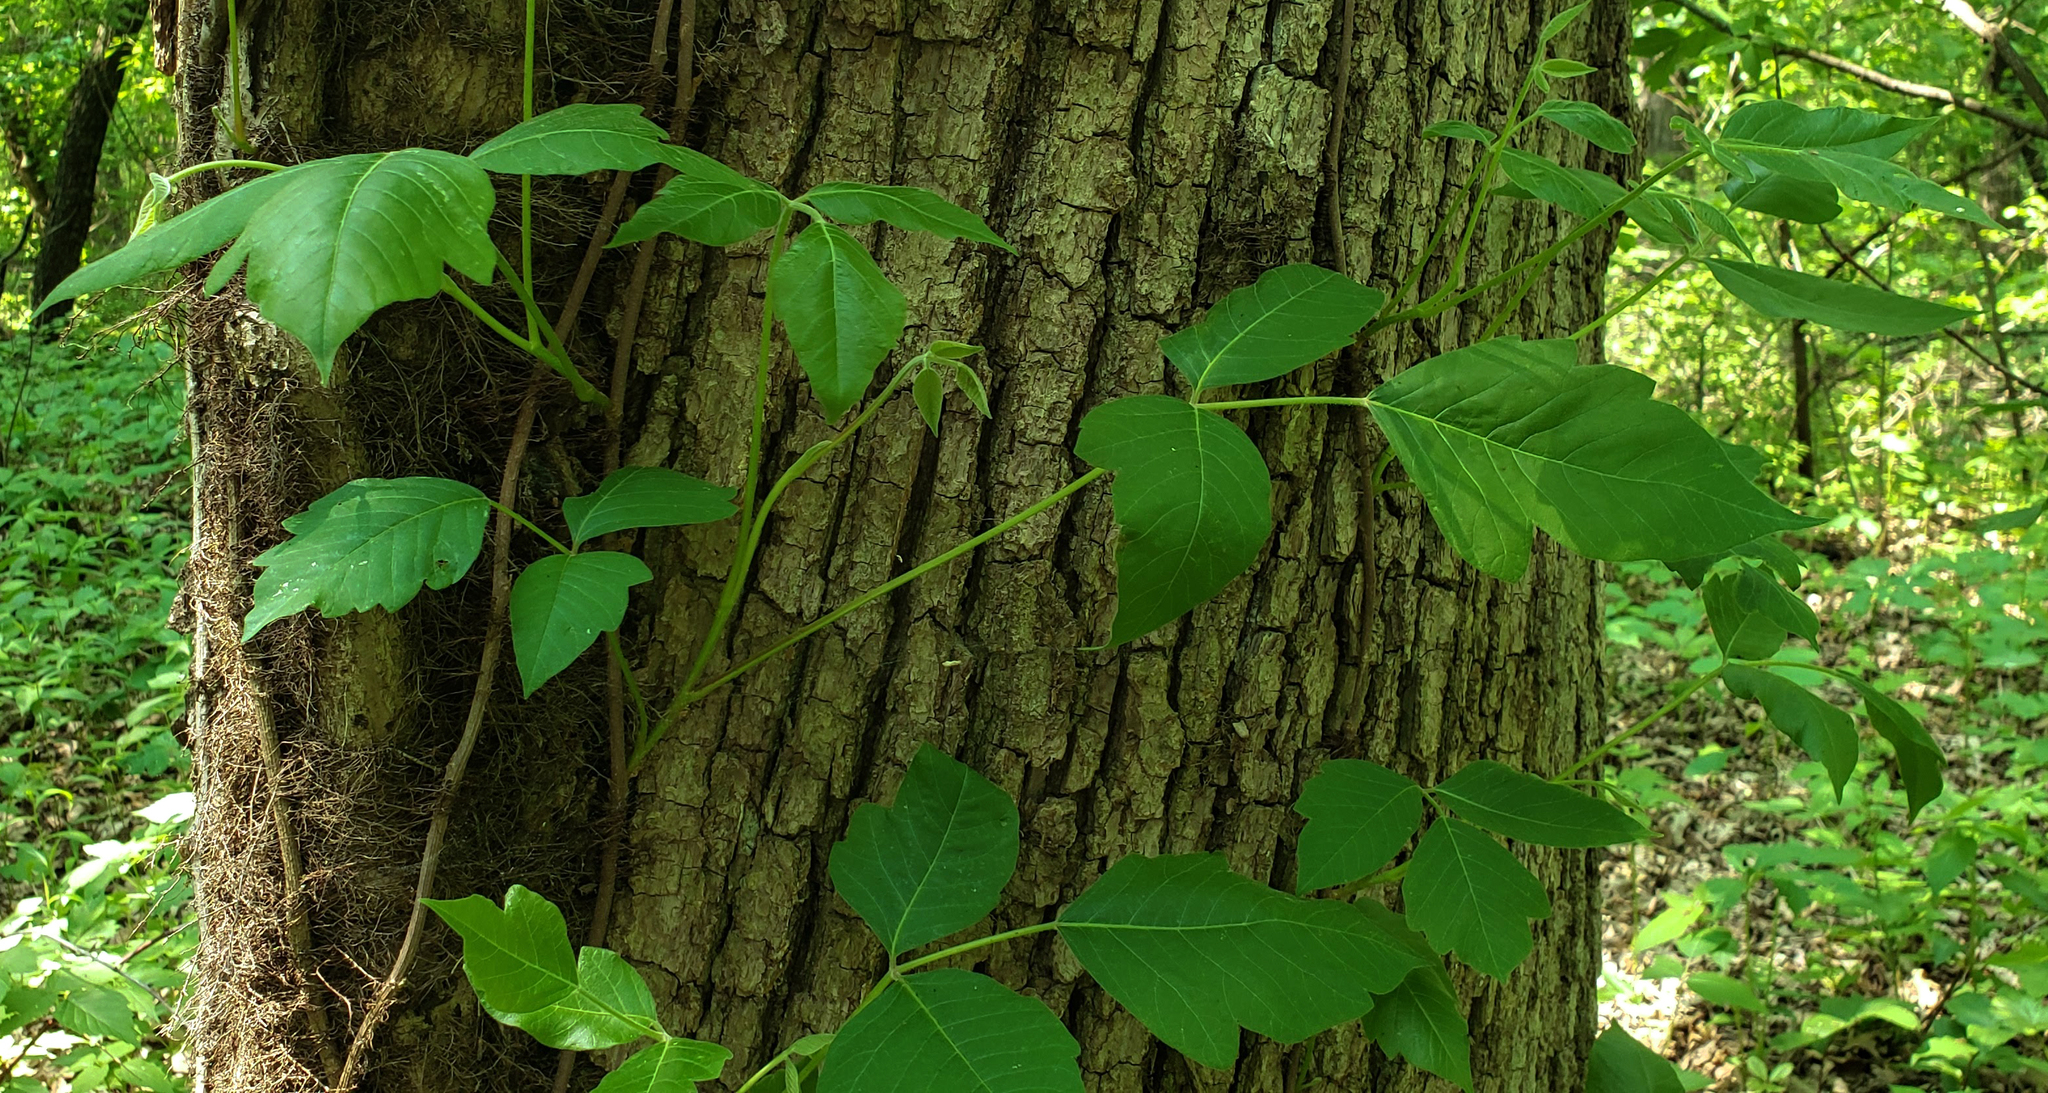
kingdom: Plantae
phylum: Tracheophyta
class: Magnoliopsida
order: Sapindales
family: Anacardiaceae
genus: Toxicodendron
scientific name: Toxicodendron radicans
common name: Poison ivy
